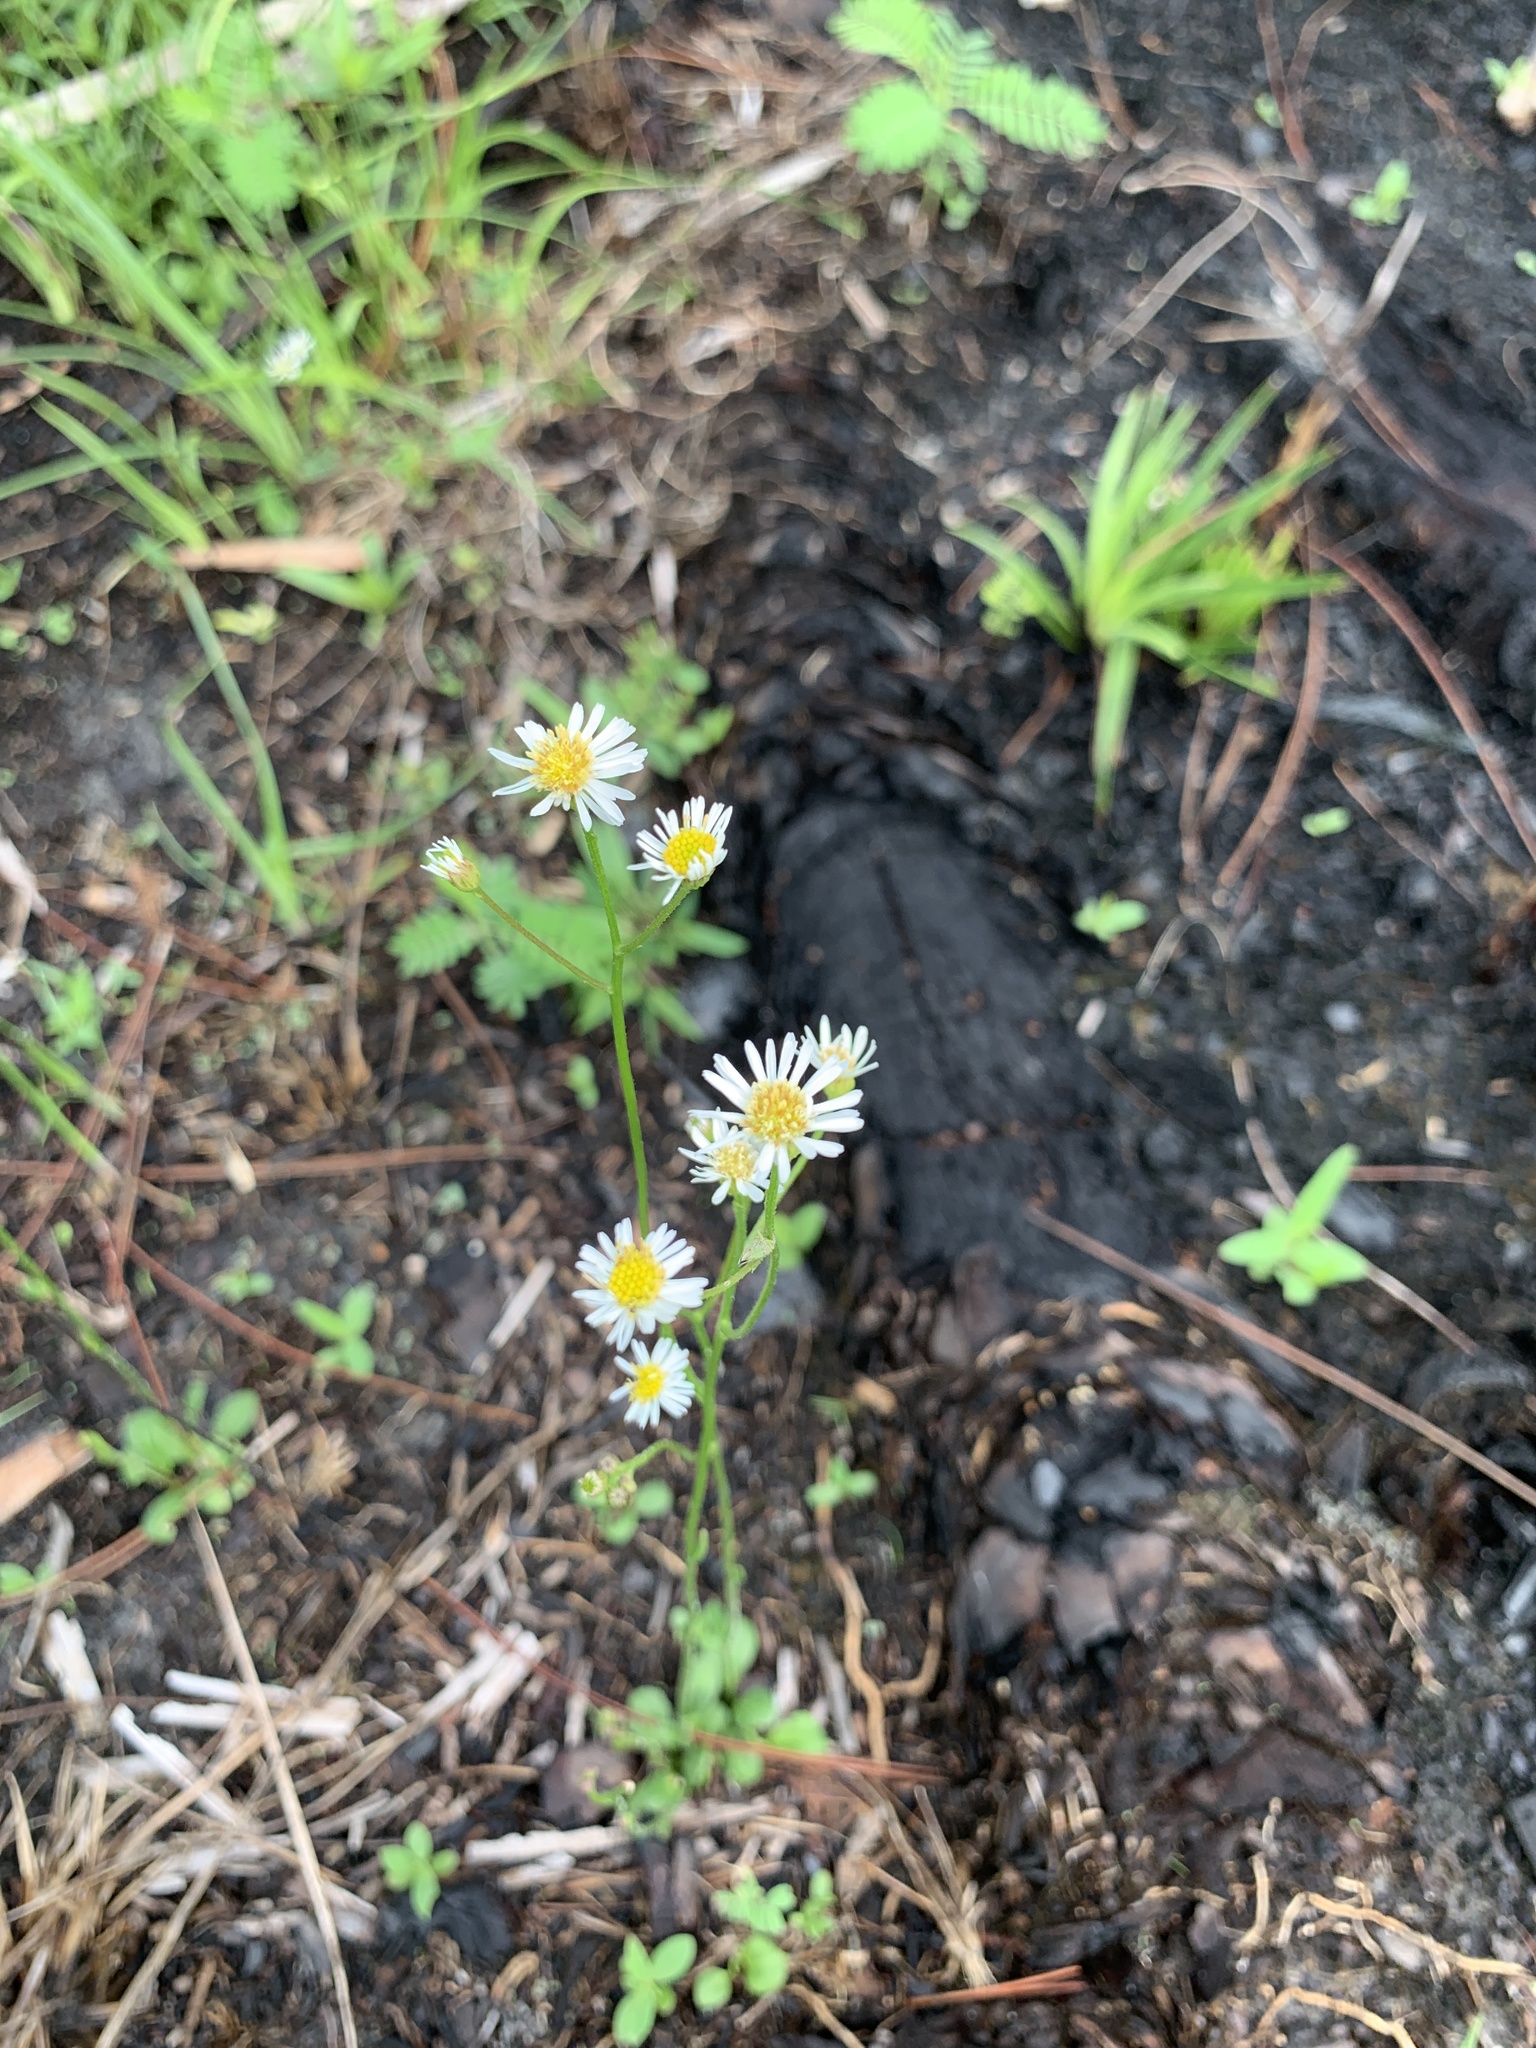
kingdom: Plantae
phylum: Tracheophyta
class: Magnoliopsida
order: Asterales
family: Asteraceae
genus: Erigeron
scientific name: Erigeron vernus
